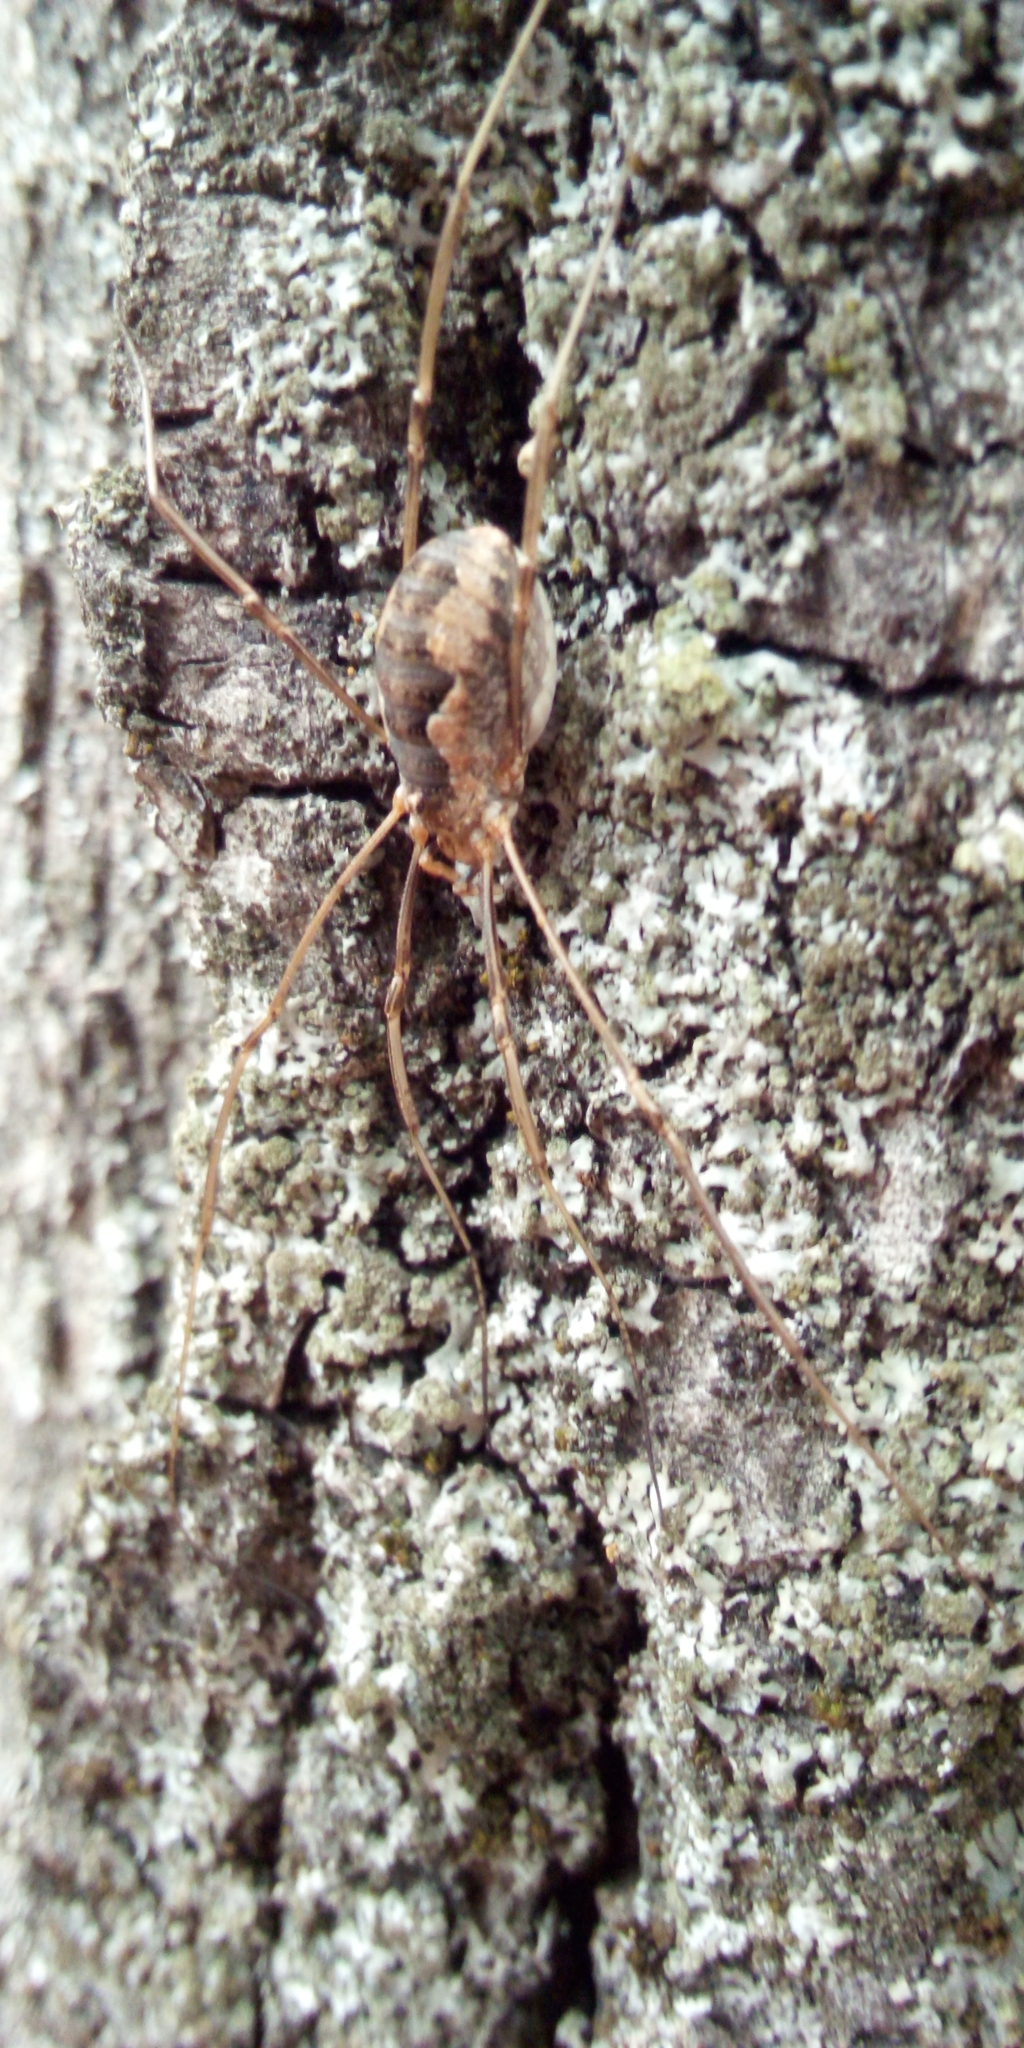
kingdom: Animalia
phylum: Arthropoda
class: Arachnida
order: Opiliones
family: Phalangiidae
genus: Phalangium
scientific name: Phalangium opilio
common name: Daddy longleg
